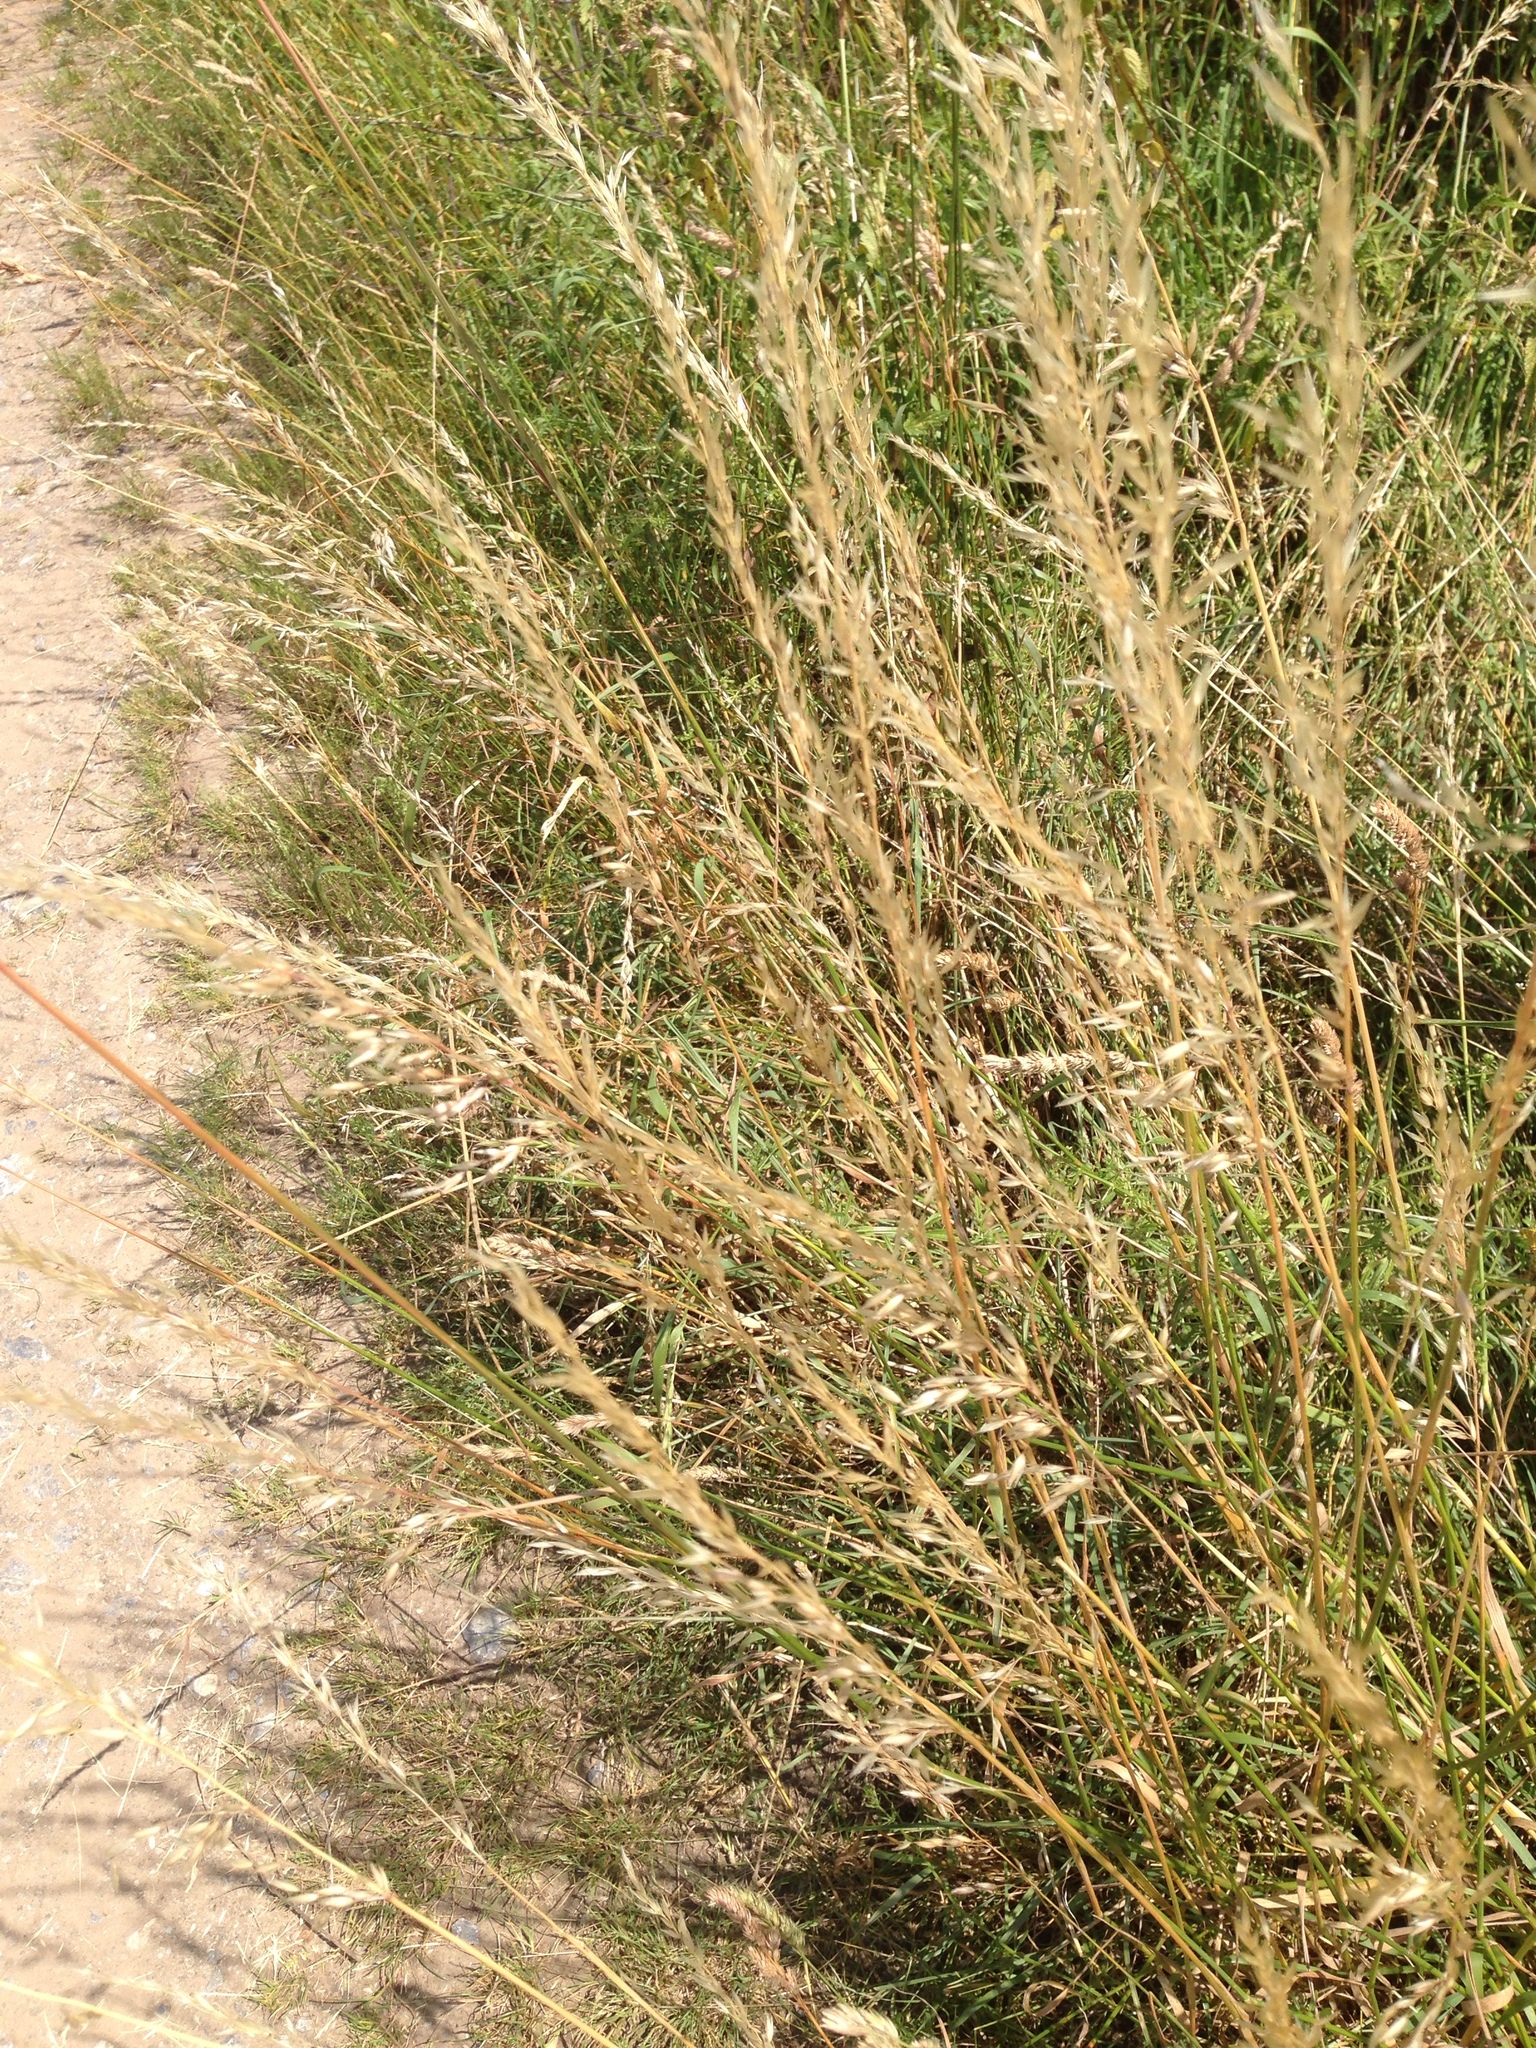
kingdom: Plantae
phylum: Tracheophyta
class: Liliopsida
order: Poales
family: Poaceae
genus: Arrhenatherum
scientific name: Arrhenatherum elatius
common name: Tall oatgrass
